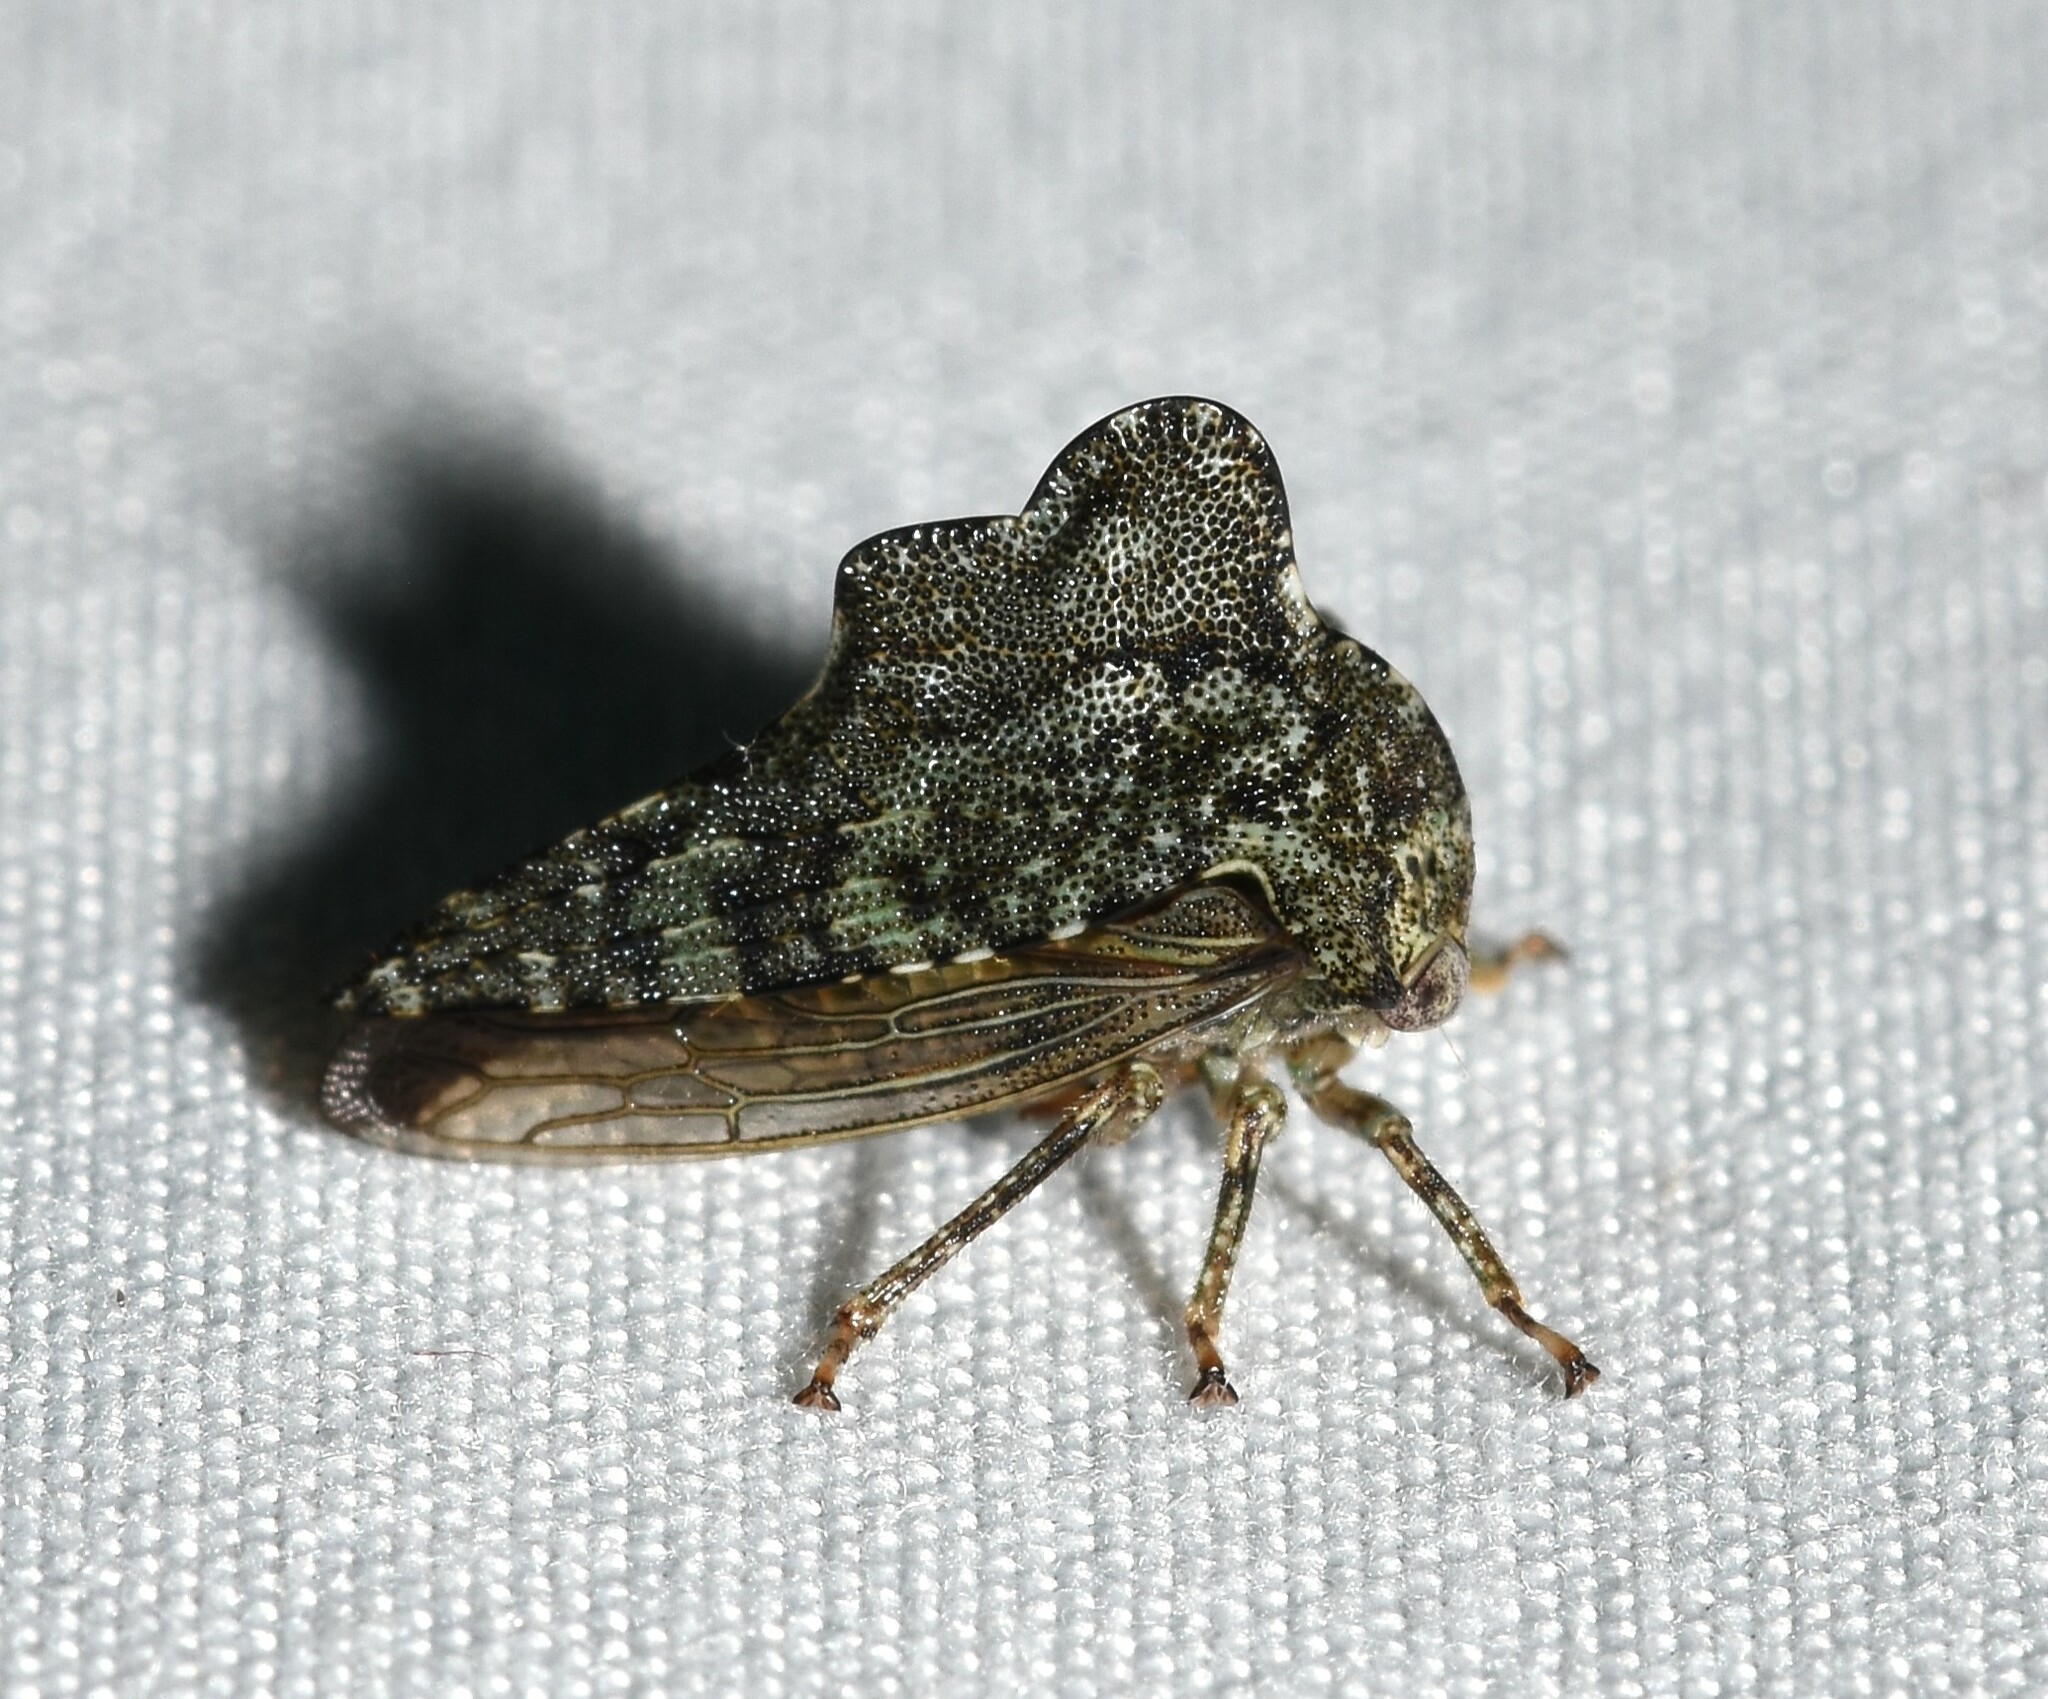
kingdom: Animalia
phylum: Arthropoda
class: Insecta
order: Hemiptera
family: Membracidae
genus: Heliria
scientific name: Heliria fitchi
